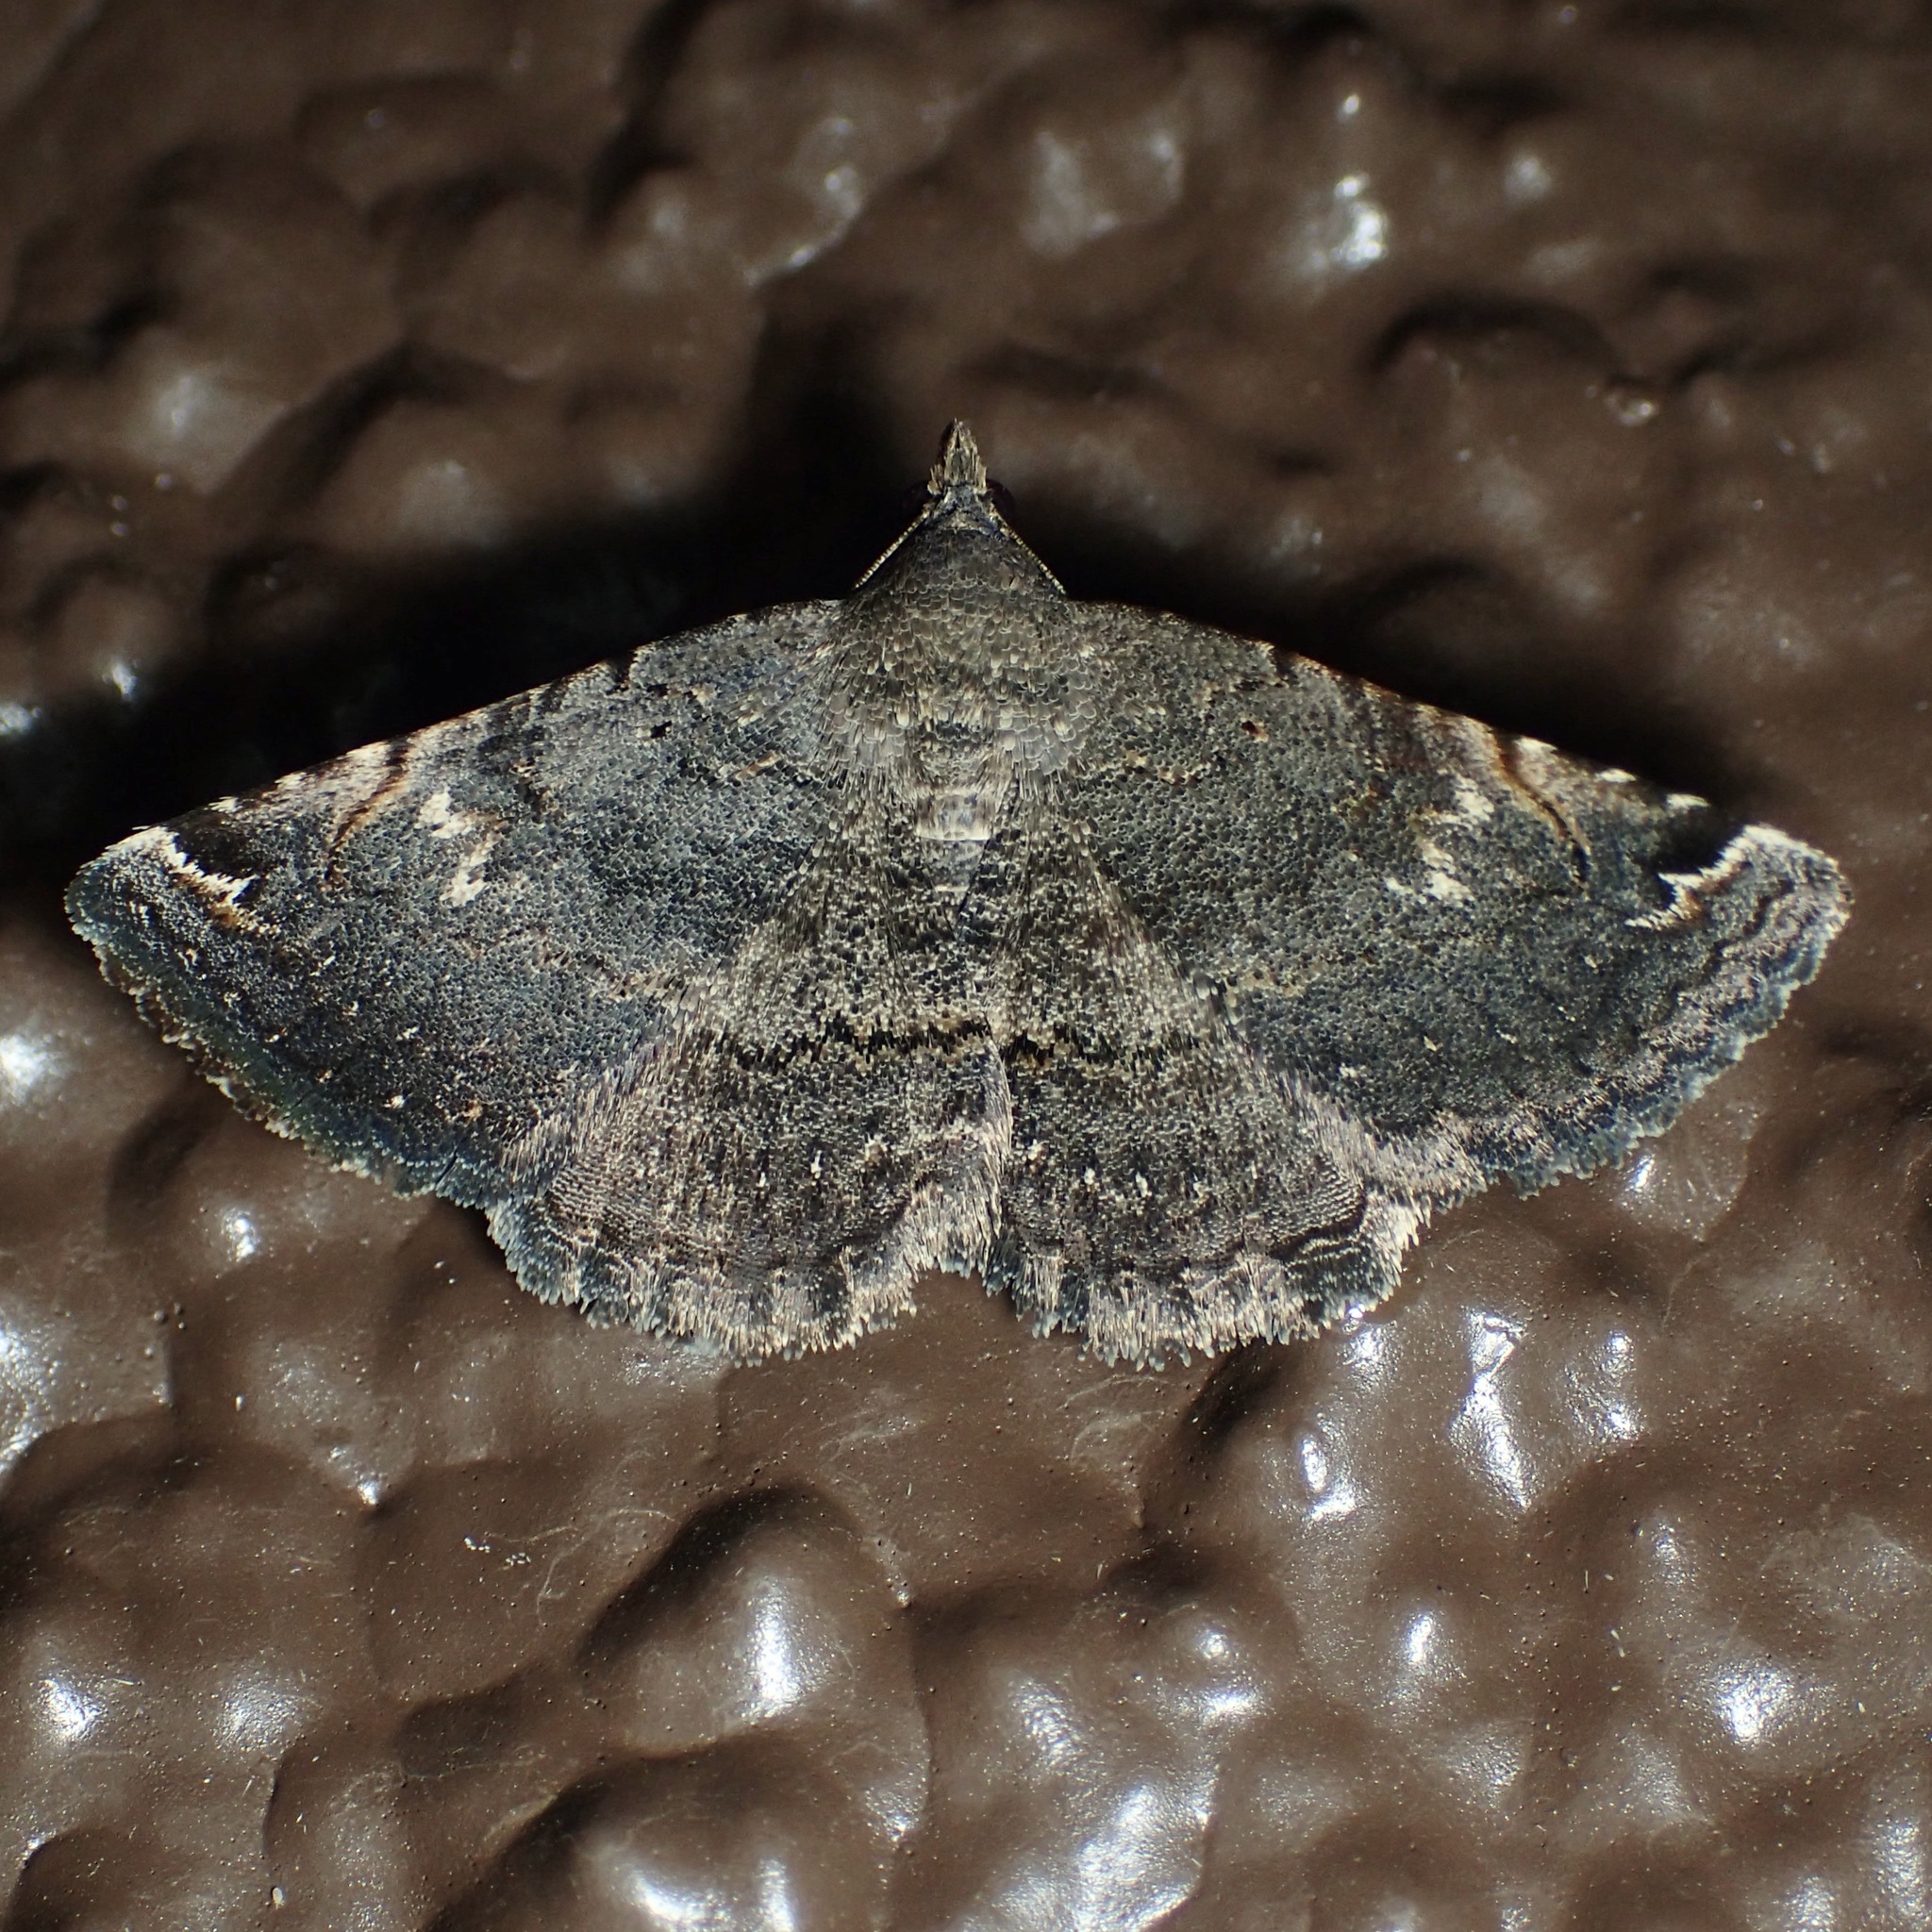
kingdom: Animalia
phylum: Arthropoda
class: Insecta
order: Lepidoptera
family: Erebidae
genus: Toxonprucha
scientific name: Toxonprucha crudelis
